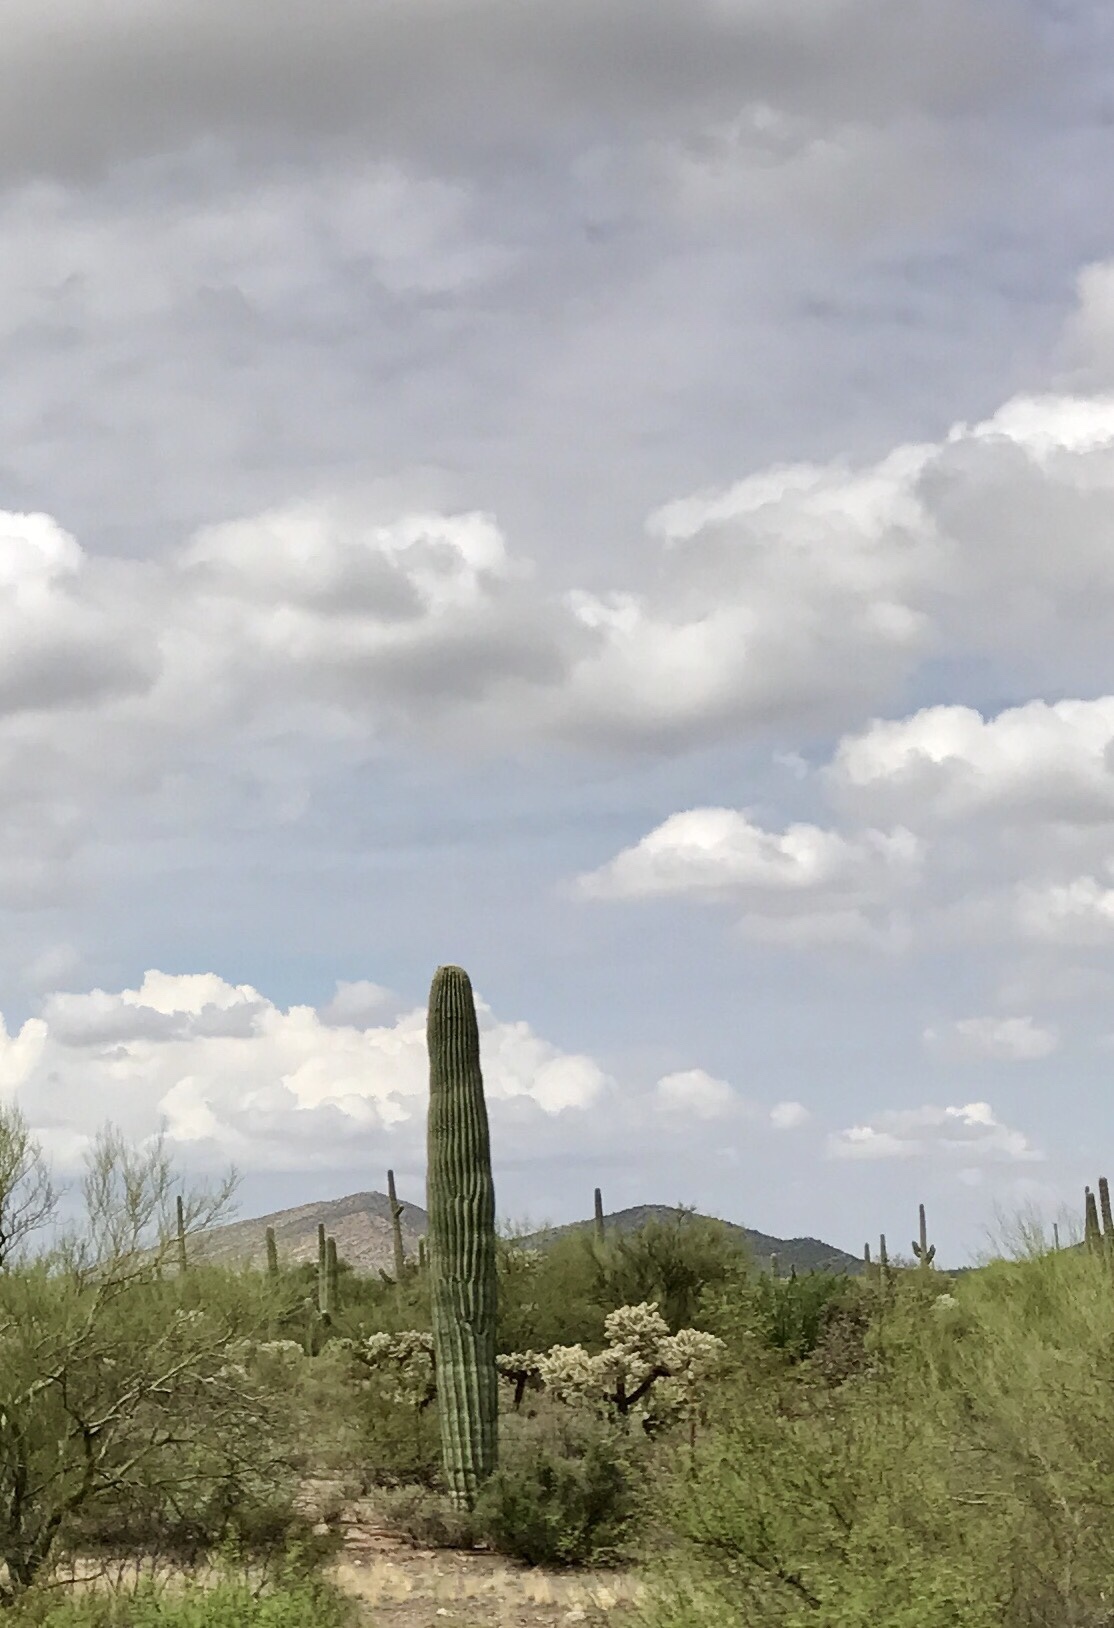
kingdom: Plantae
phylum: Tracheophyta
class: Magnoliopsida
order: Caryophyllales
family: Cactaceae
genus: Carnegiea
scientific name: Carnegiea gigantea
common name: Saguaro
